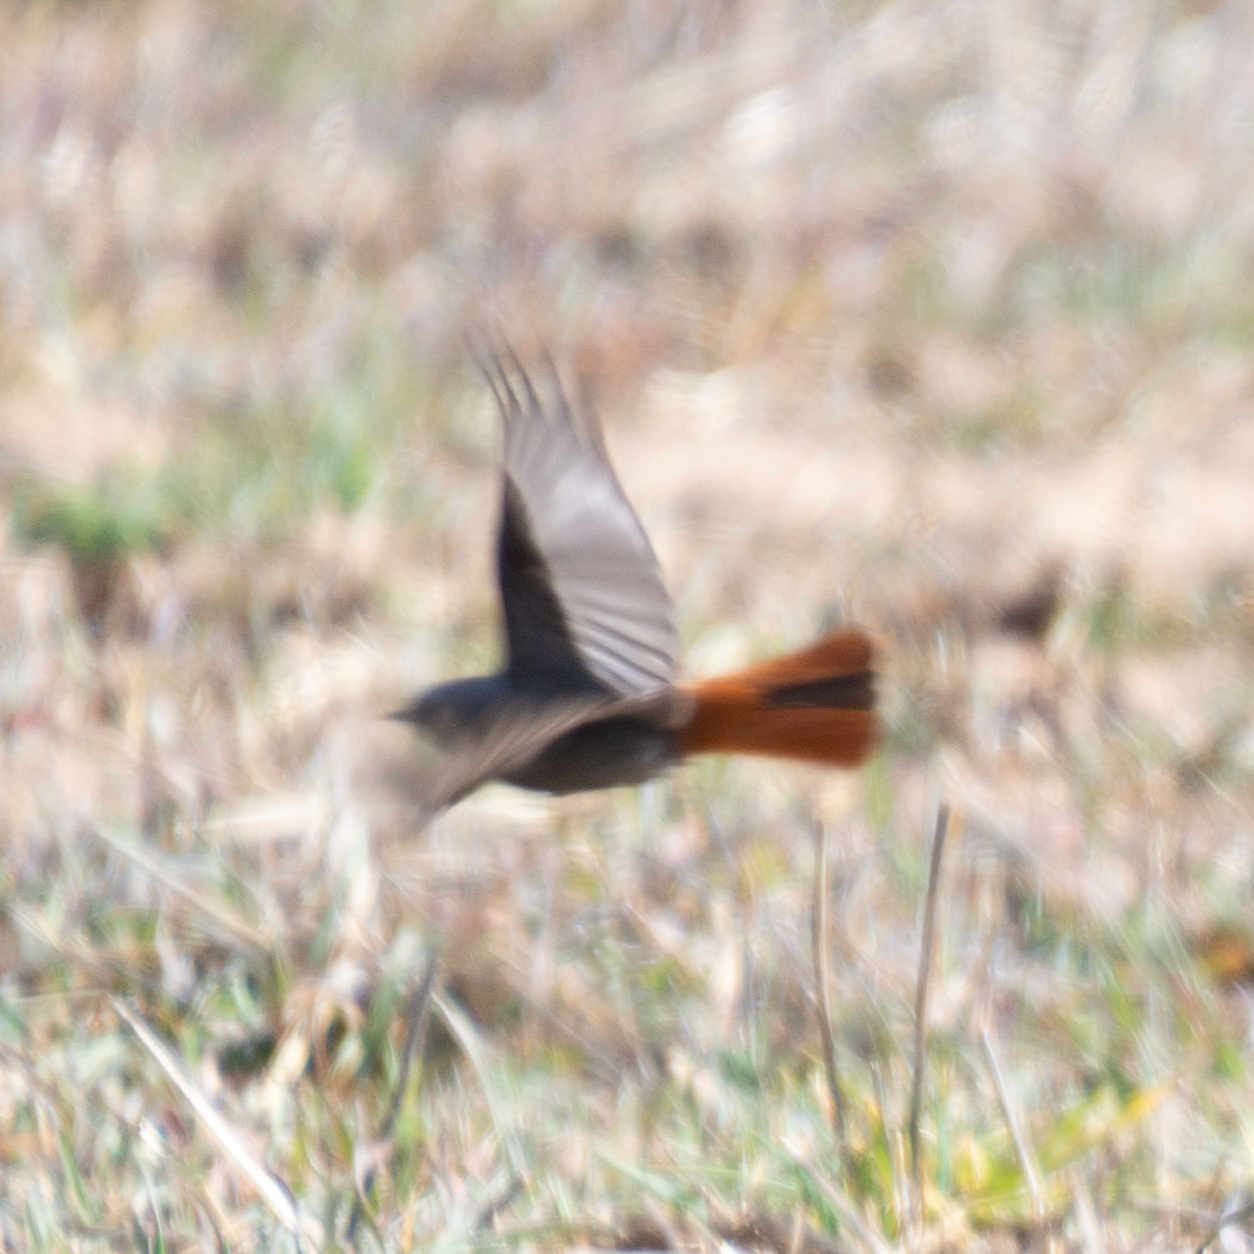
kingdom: Animalia
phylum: Chordata
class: Aves
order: Passeriformes
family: Muscicapidae
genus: Phoenicurus
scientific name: Phoenicurus ochruros
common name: Black redstart
